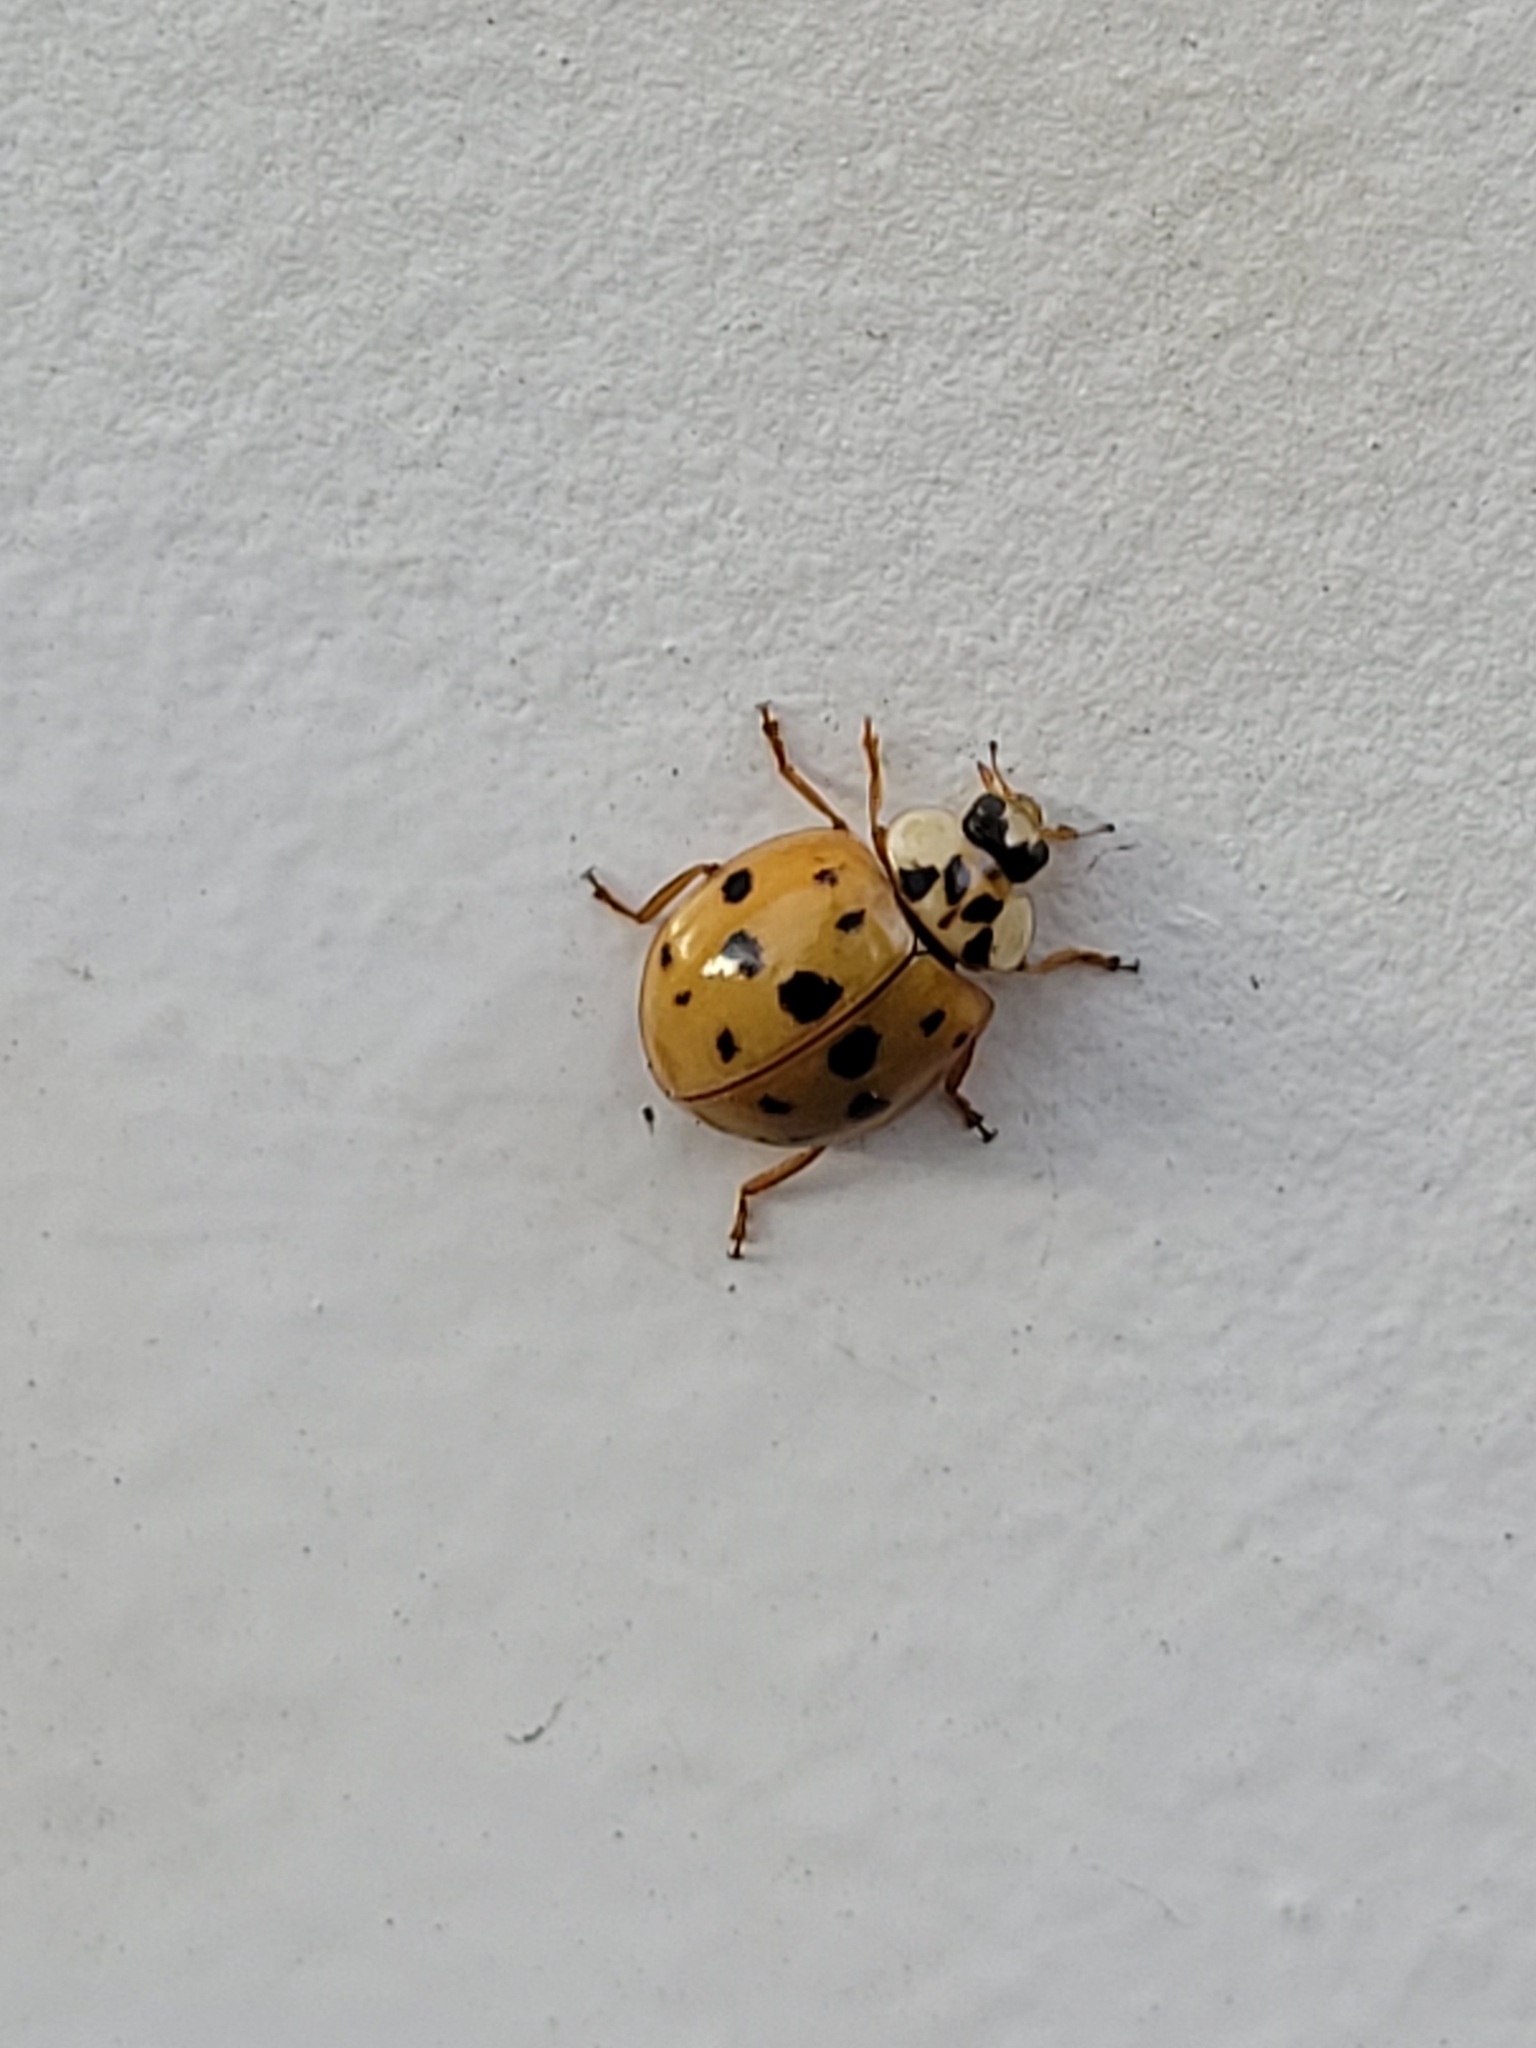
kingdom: Animalia
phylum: Arthropoda
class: Insecta
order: Coleoptera
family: Coccinellidae
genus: Harmonia
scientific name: Harmonia axyridis
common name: Harlequin ladybird
